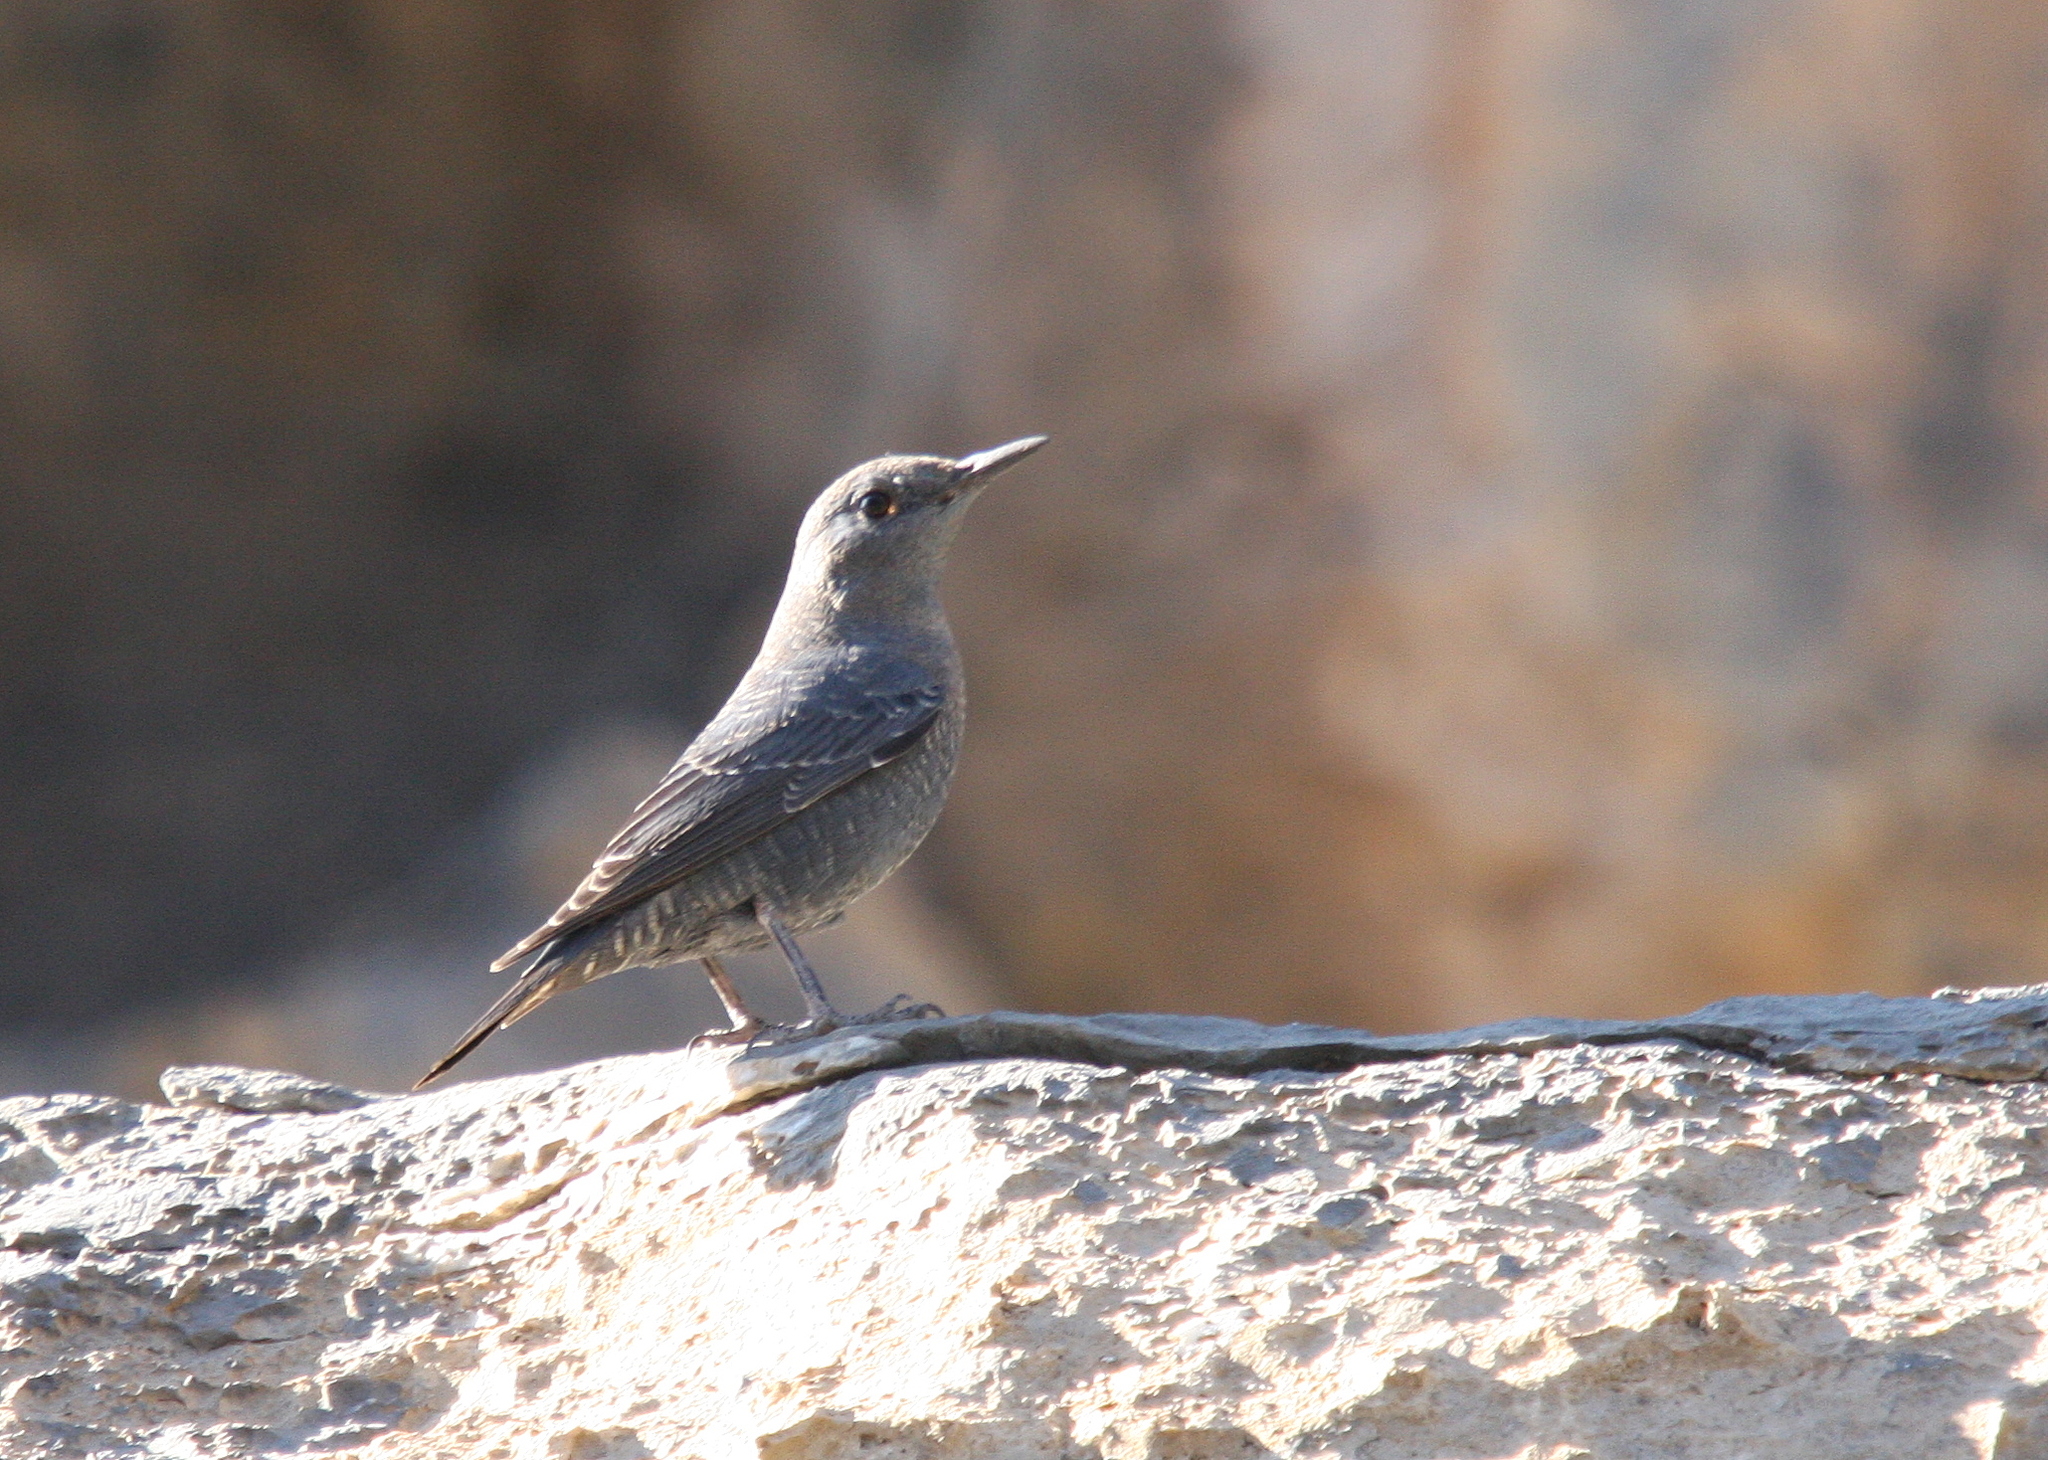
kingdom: Animalia
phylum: Chordata
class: Aves
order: Passeriformes
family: Muscicapidae
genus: Monticola
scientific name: Monticola solitarius
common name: Blue rock thrush
